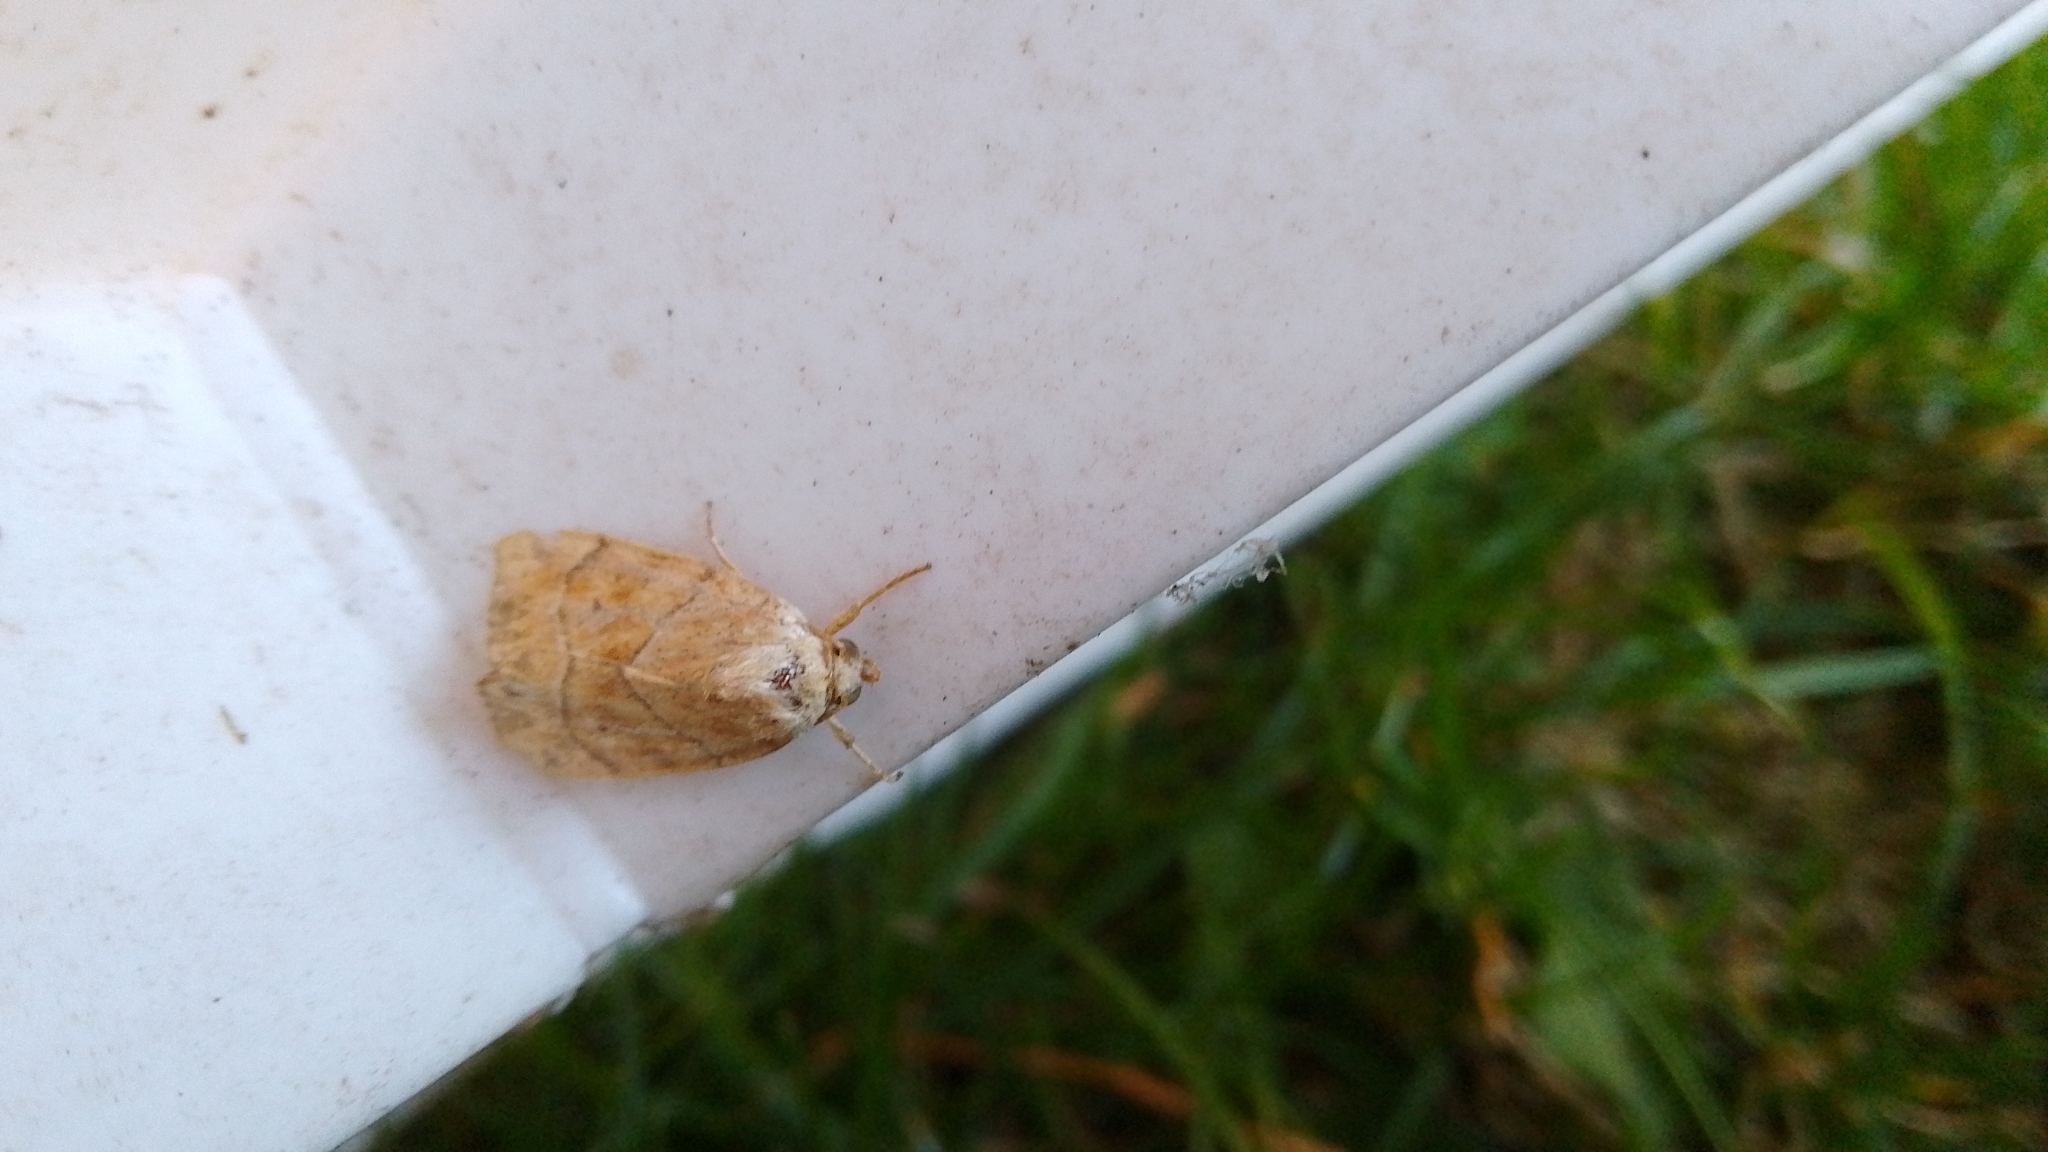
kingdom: Animalia
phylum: Arthropoda
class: Insecta
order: Lepidoptera
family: Noctuidae
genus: Cosmia
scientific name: Cosmia trapezina
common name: Dun-bar
